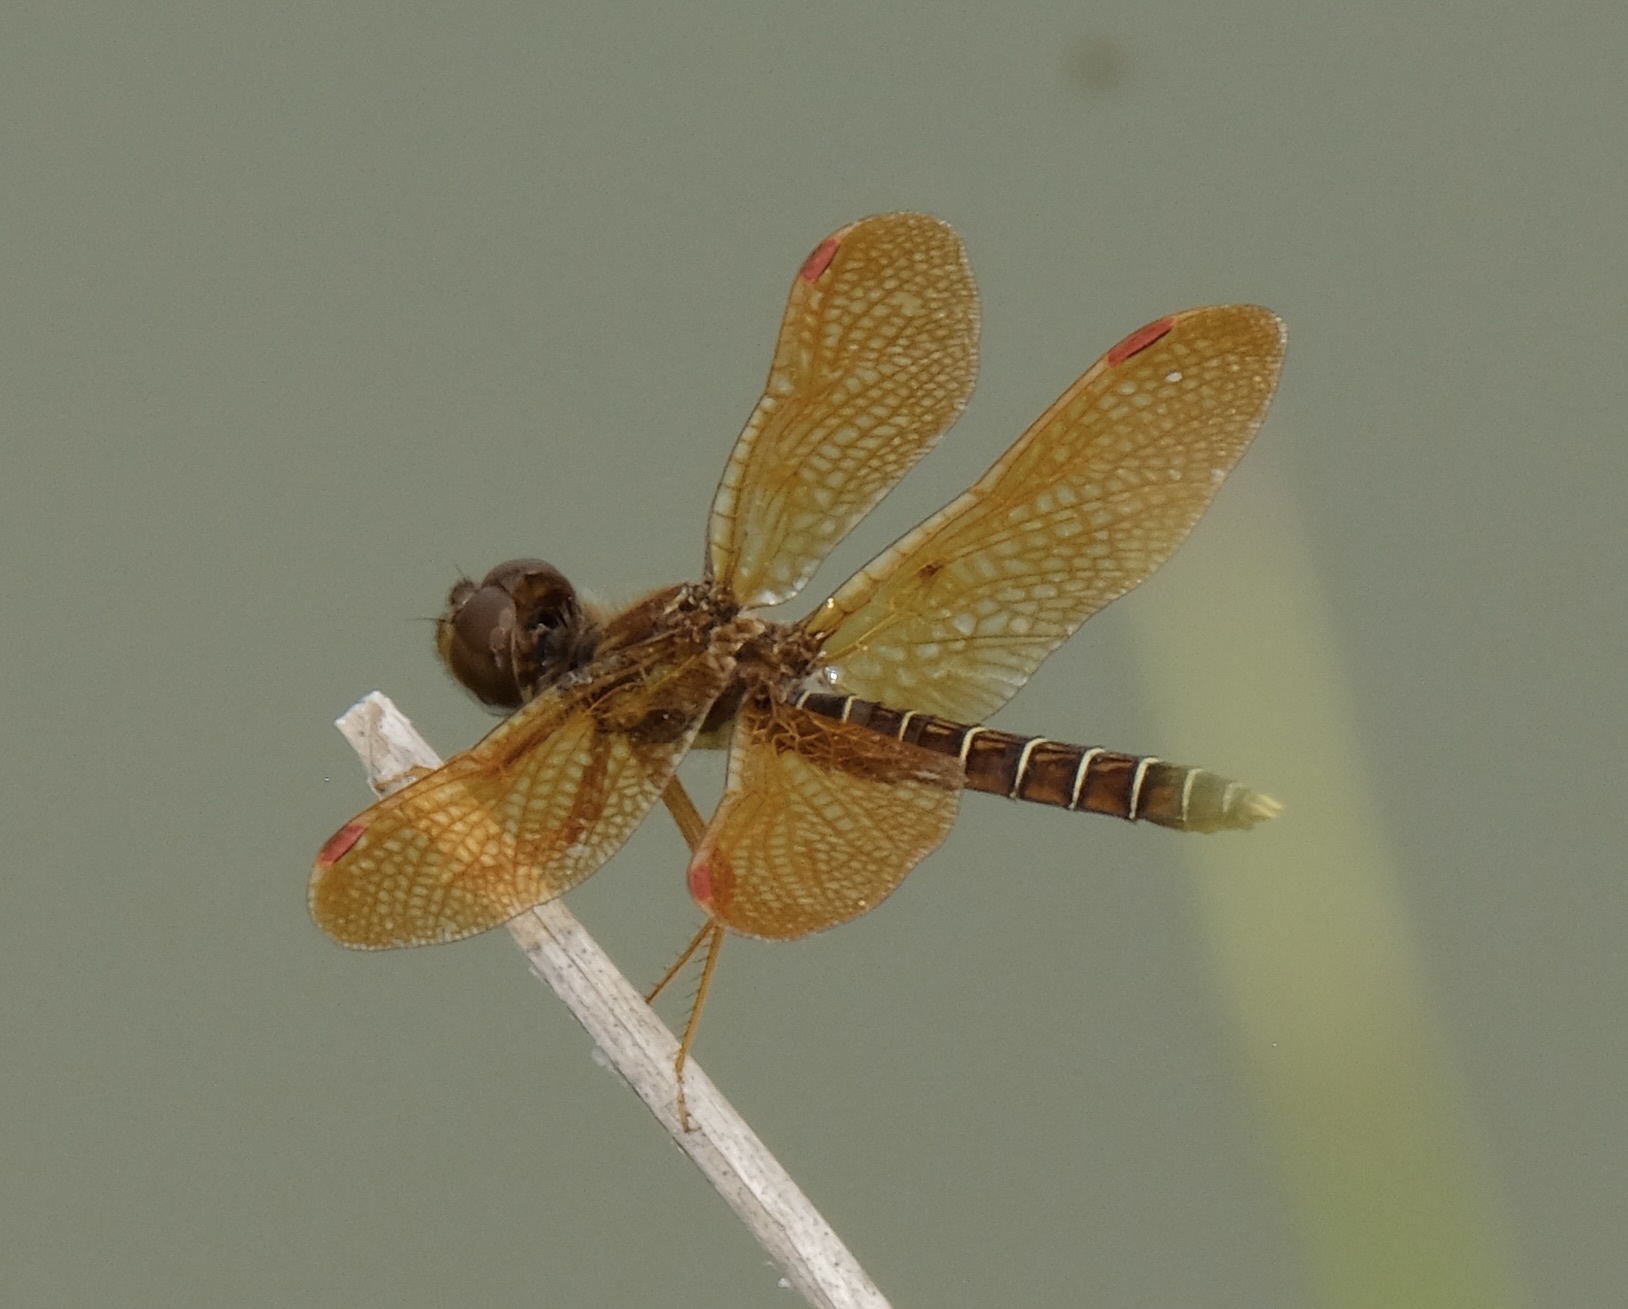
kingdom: Animalia
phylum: Arthropoda
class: Insecta
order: Odonata
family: Libellulidae
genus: Perithemis
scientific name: Perithemis tenera
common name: Eastern amberwing
